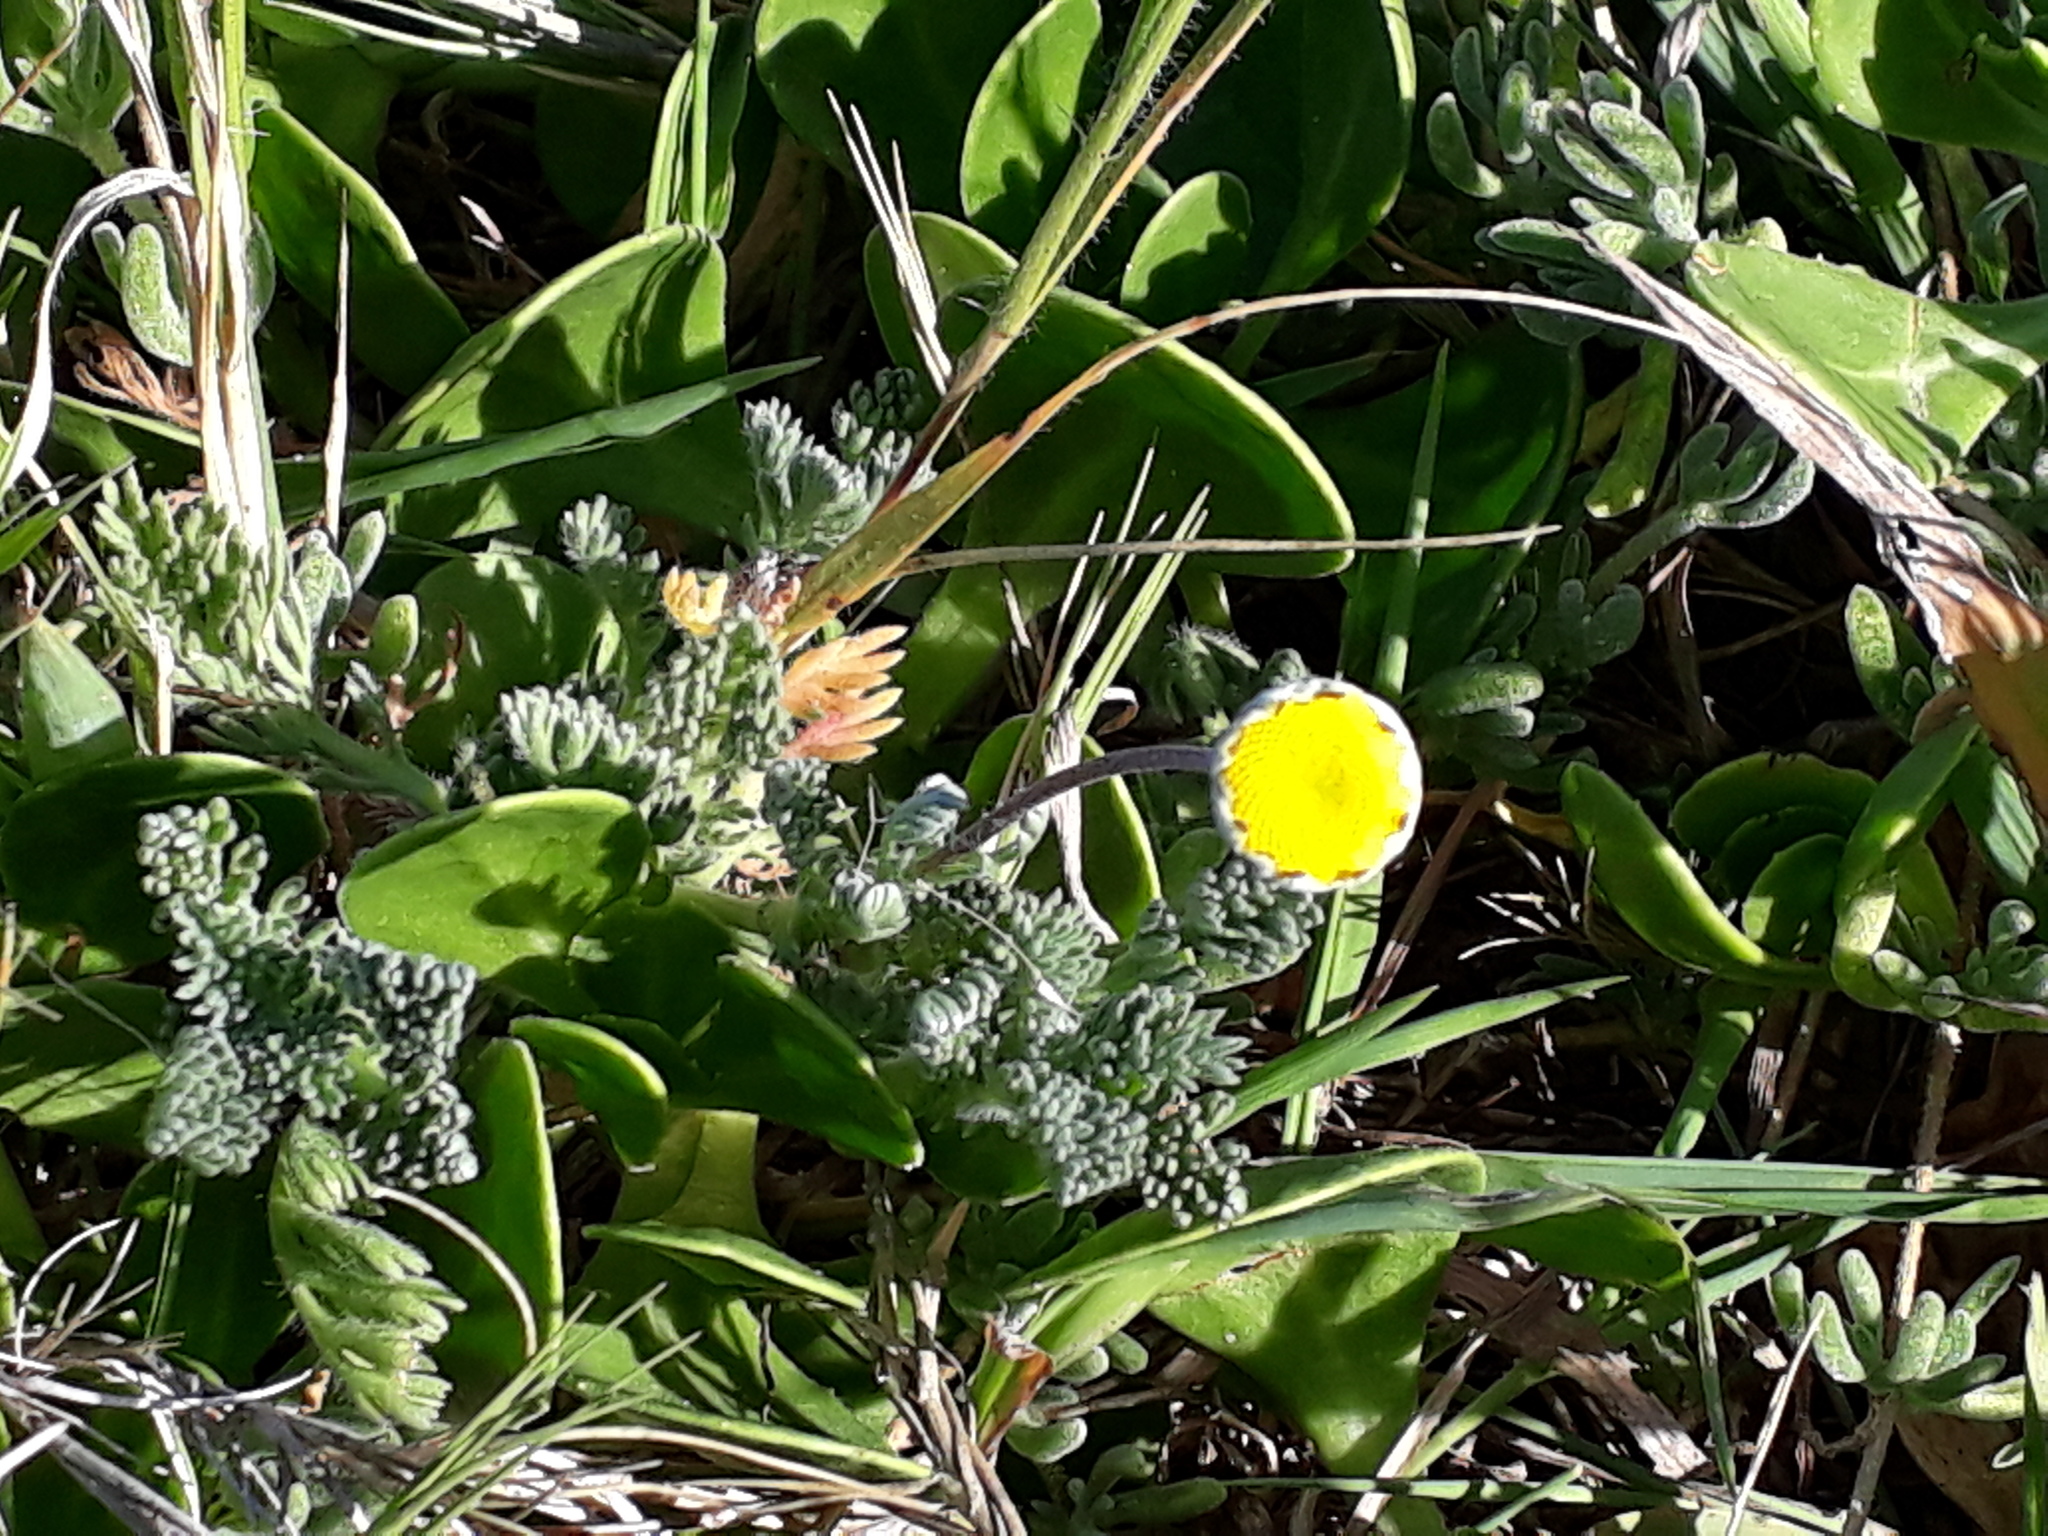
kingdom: Plantae
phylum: Tracheophyta
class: Magnoliopsida
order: Asterales
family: Asteraceae
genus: Cotula
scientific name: Cotula discolor
